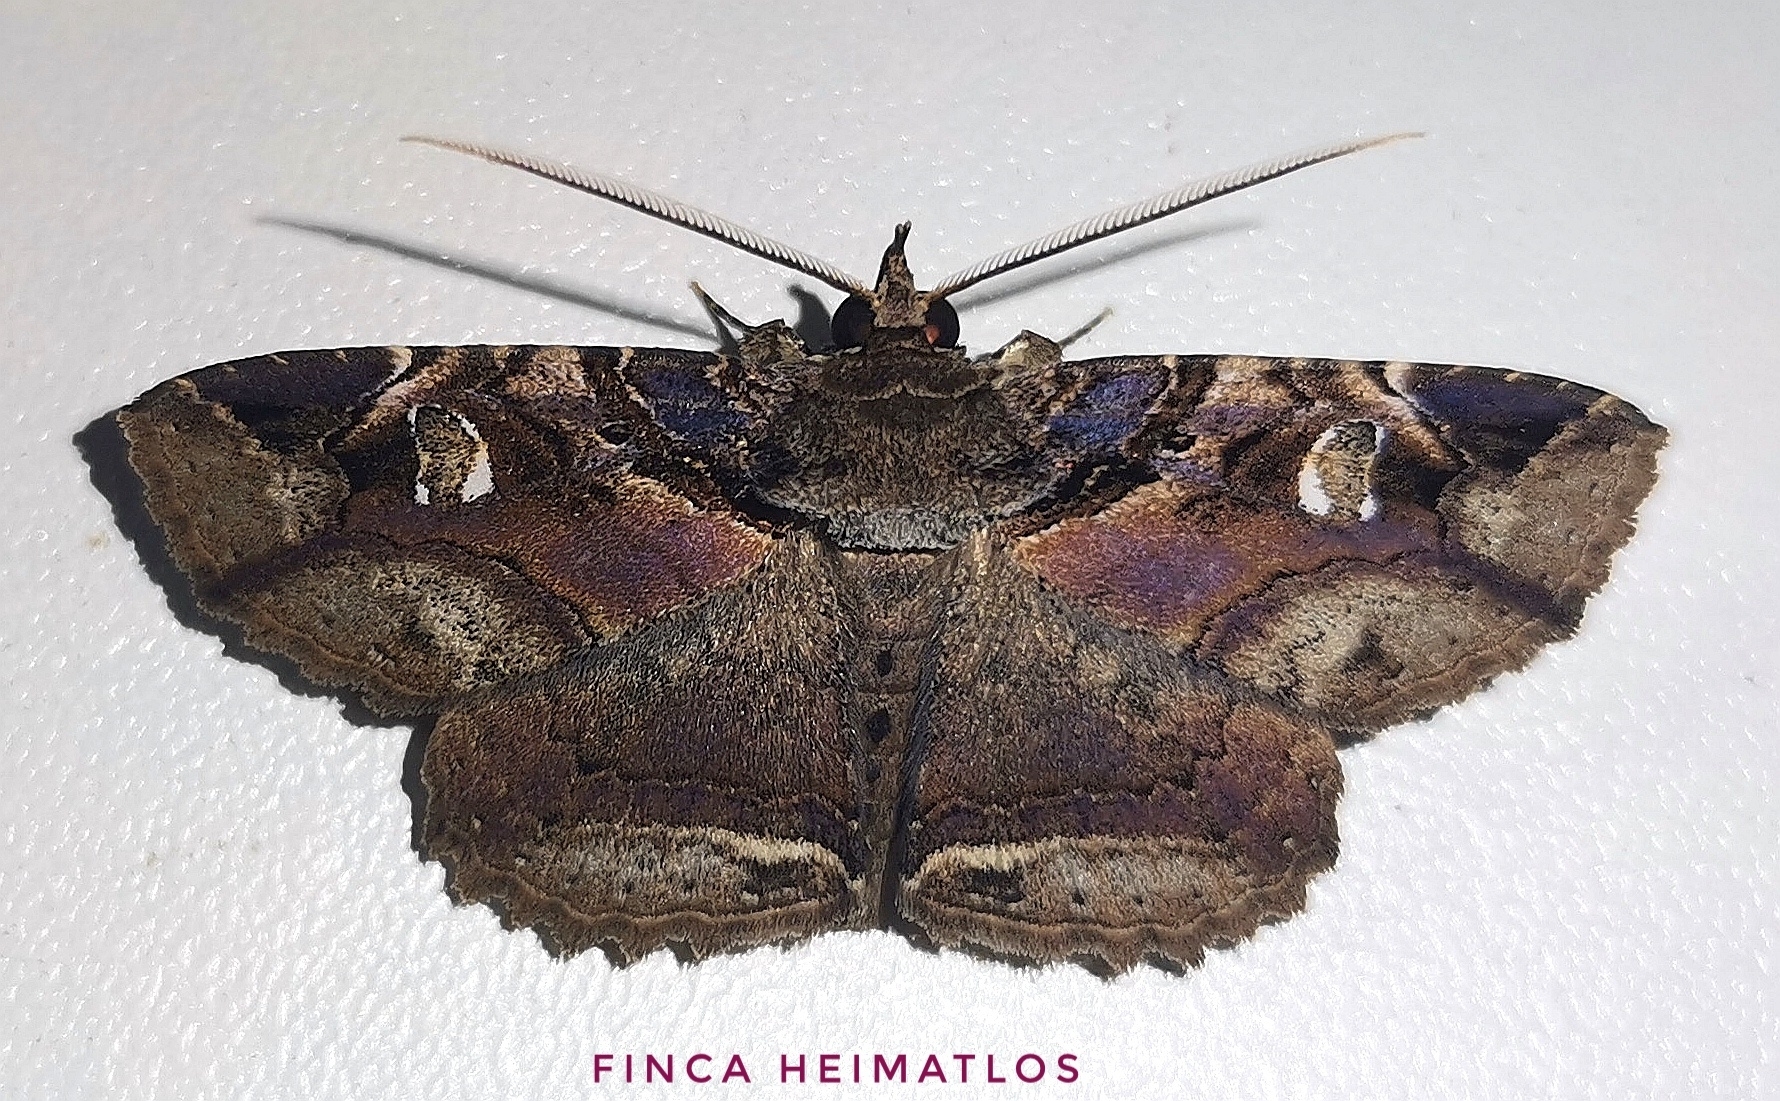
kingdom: Animalia
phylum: Arthropoda
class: Insecta
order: Lepidoptera
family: Erebidae
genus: Peteroma
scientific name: Peteroma denticulata
